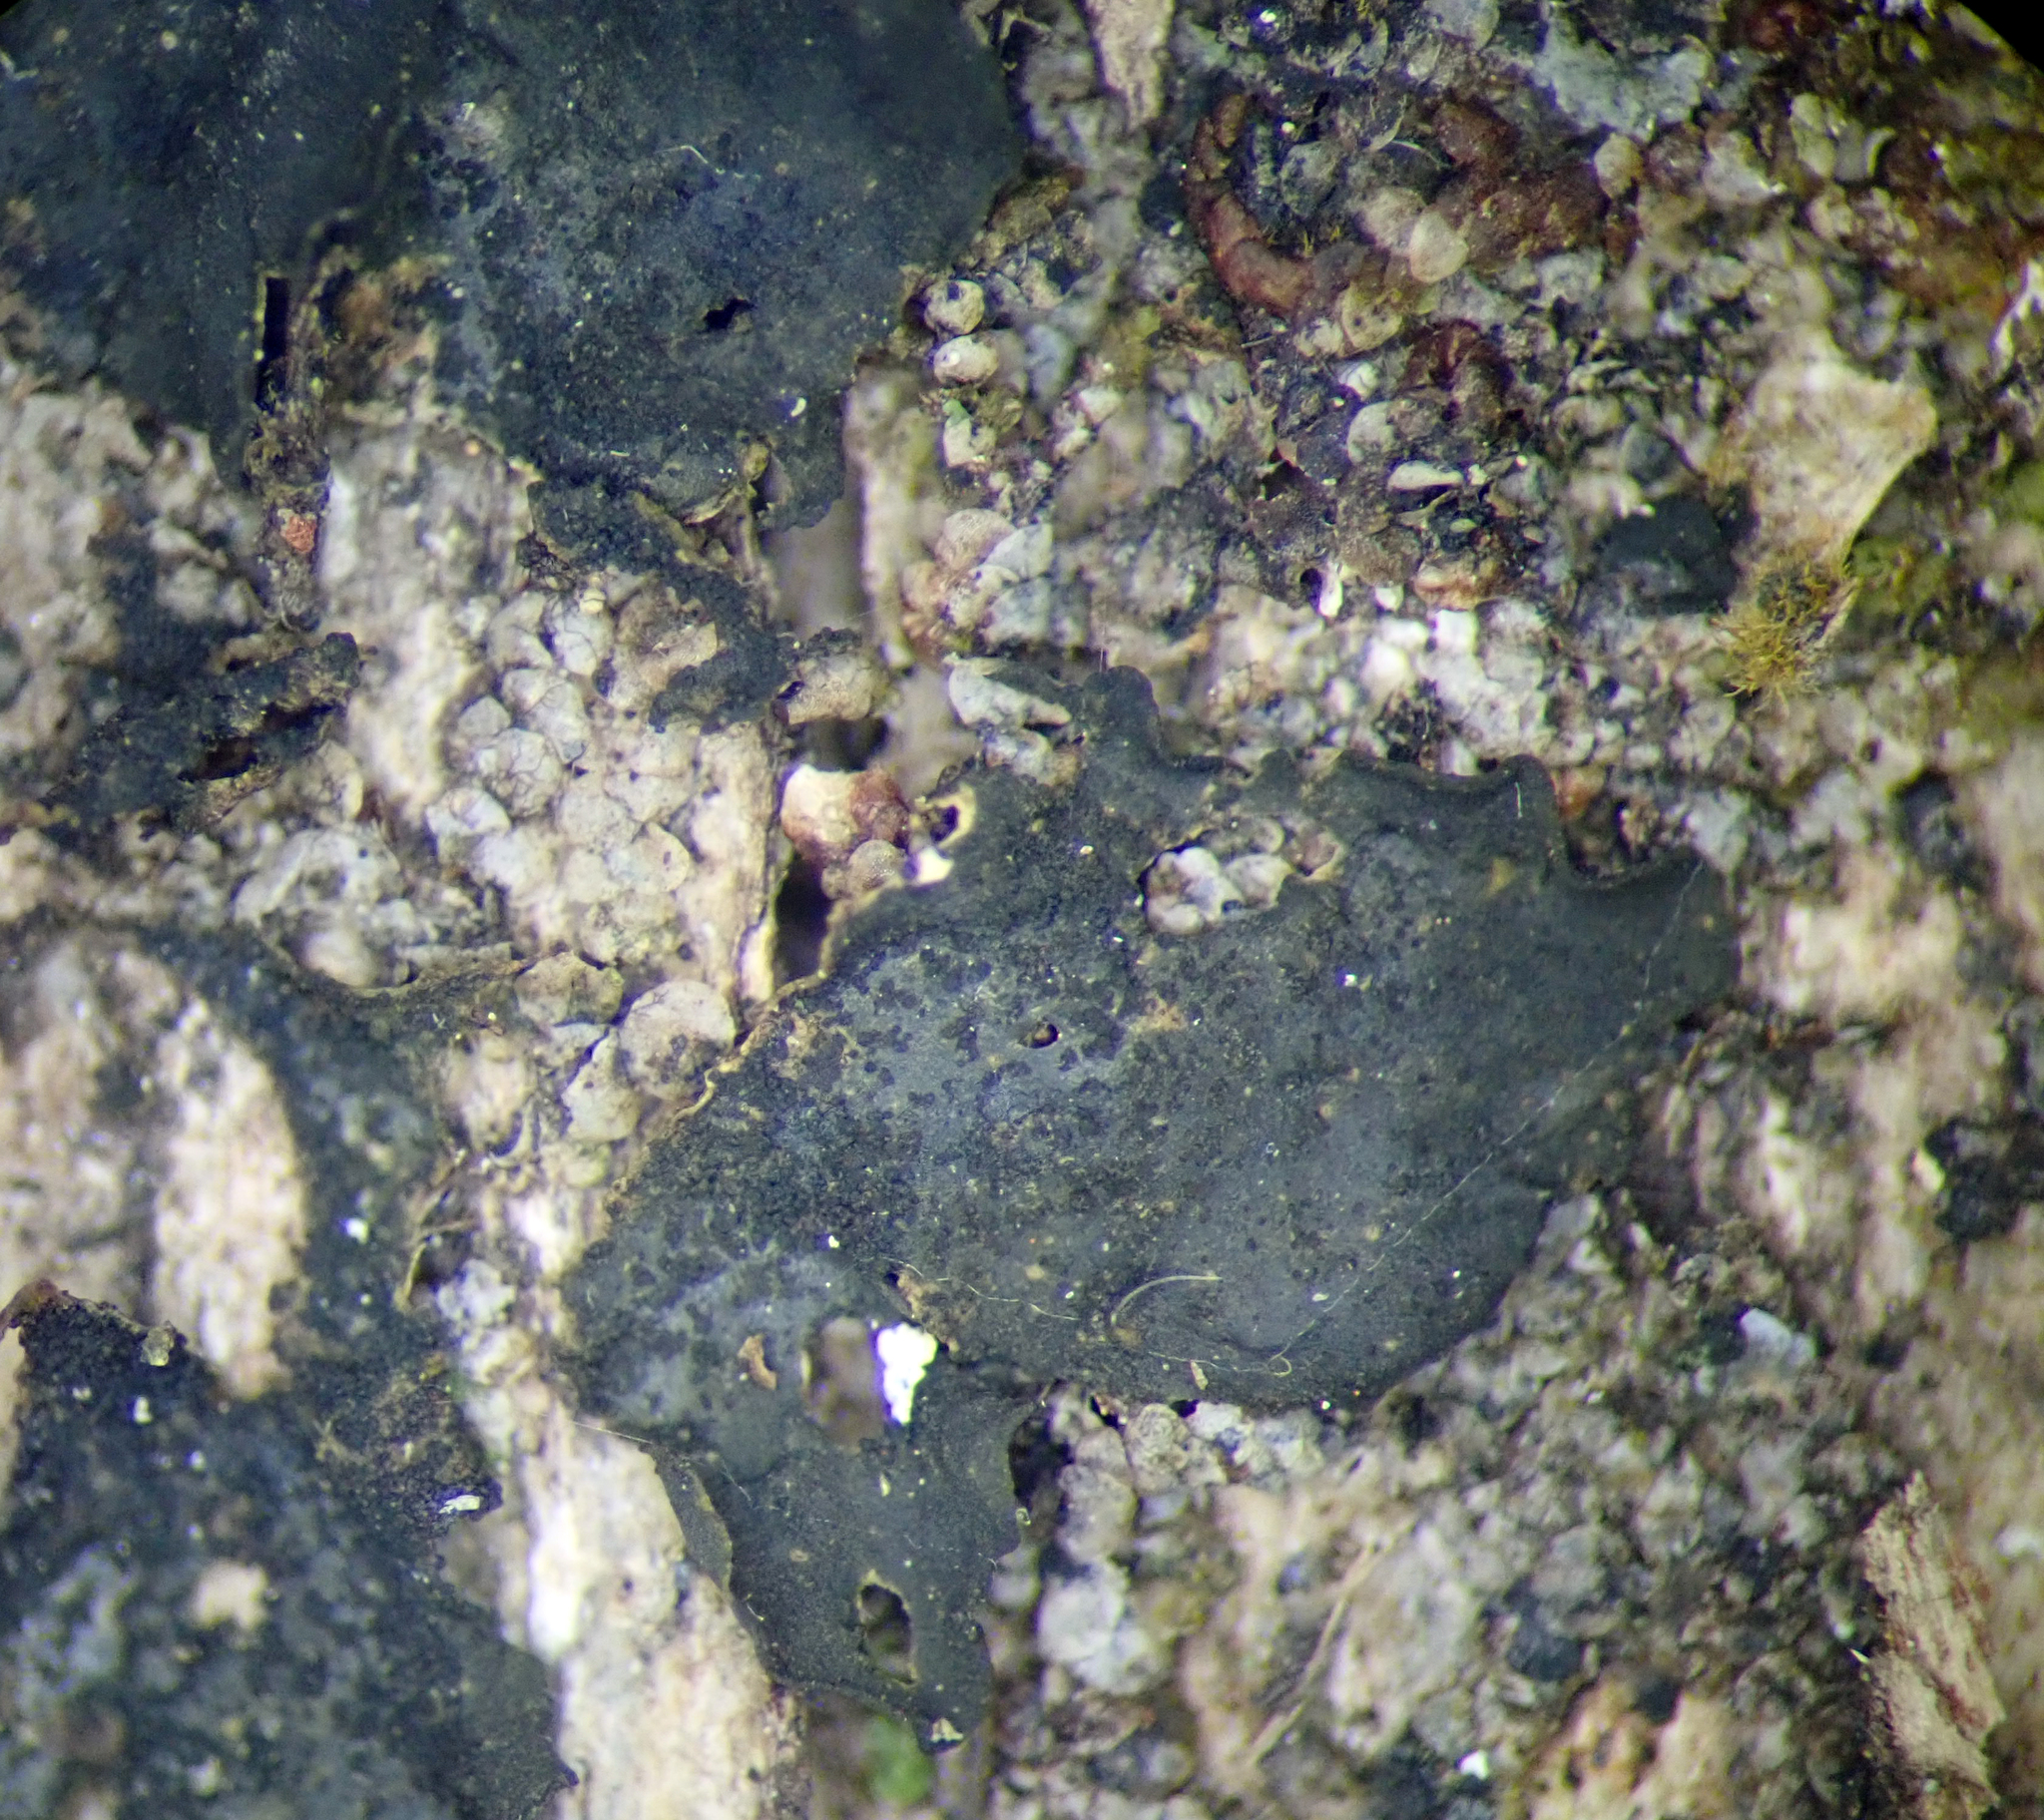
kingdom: Fungi
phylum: Ascomycota
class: Lecanoromycetes
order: Peltigerales
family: Collemataceae
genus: Collema
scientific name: Collema subflaccidum
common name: Tree jelly
